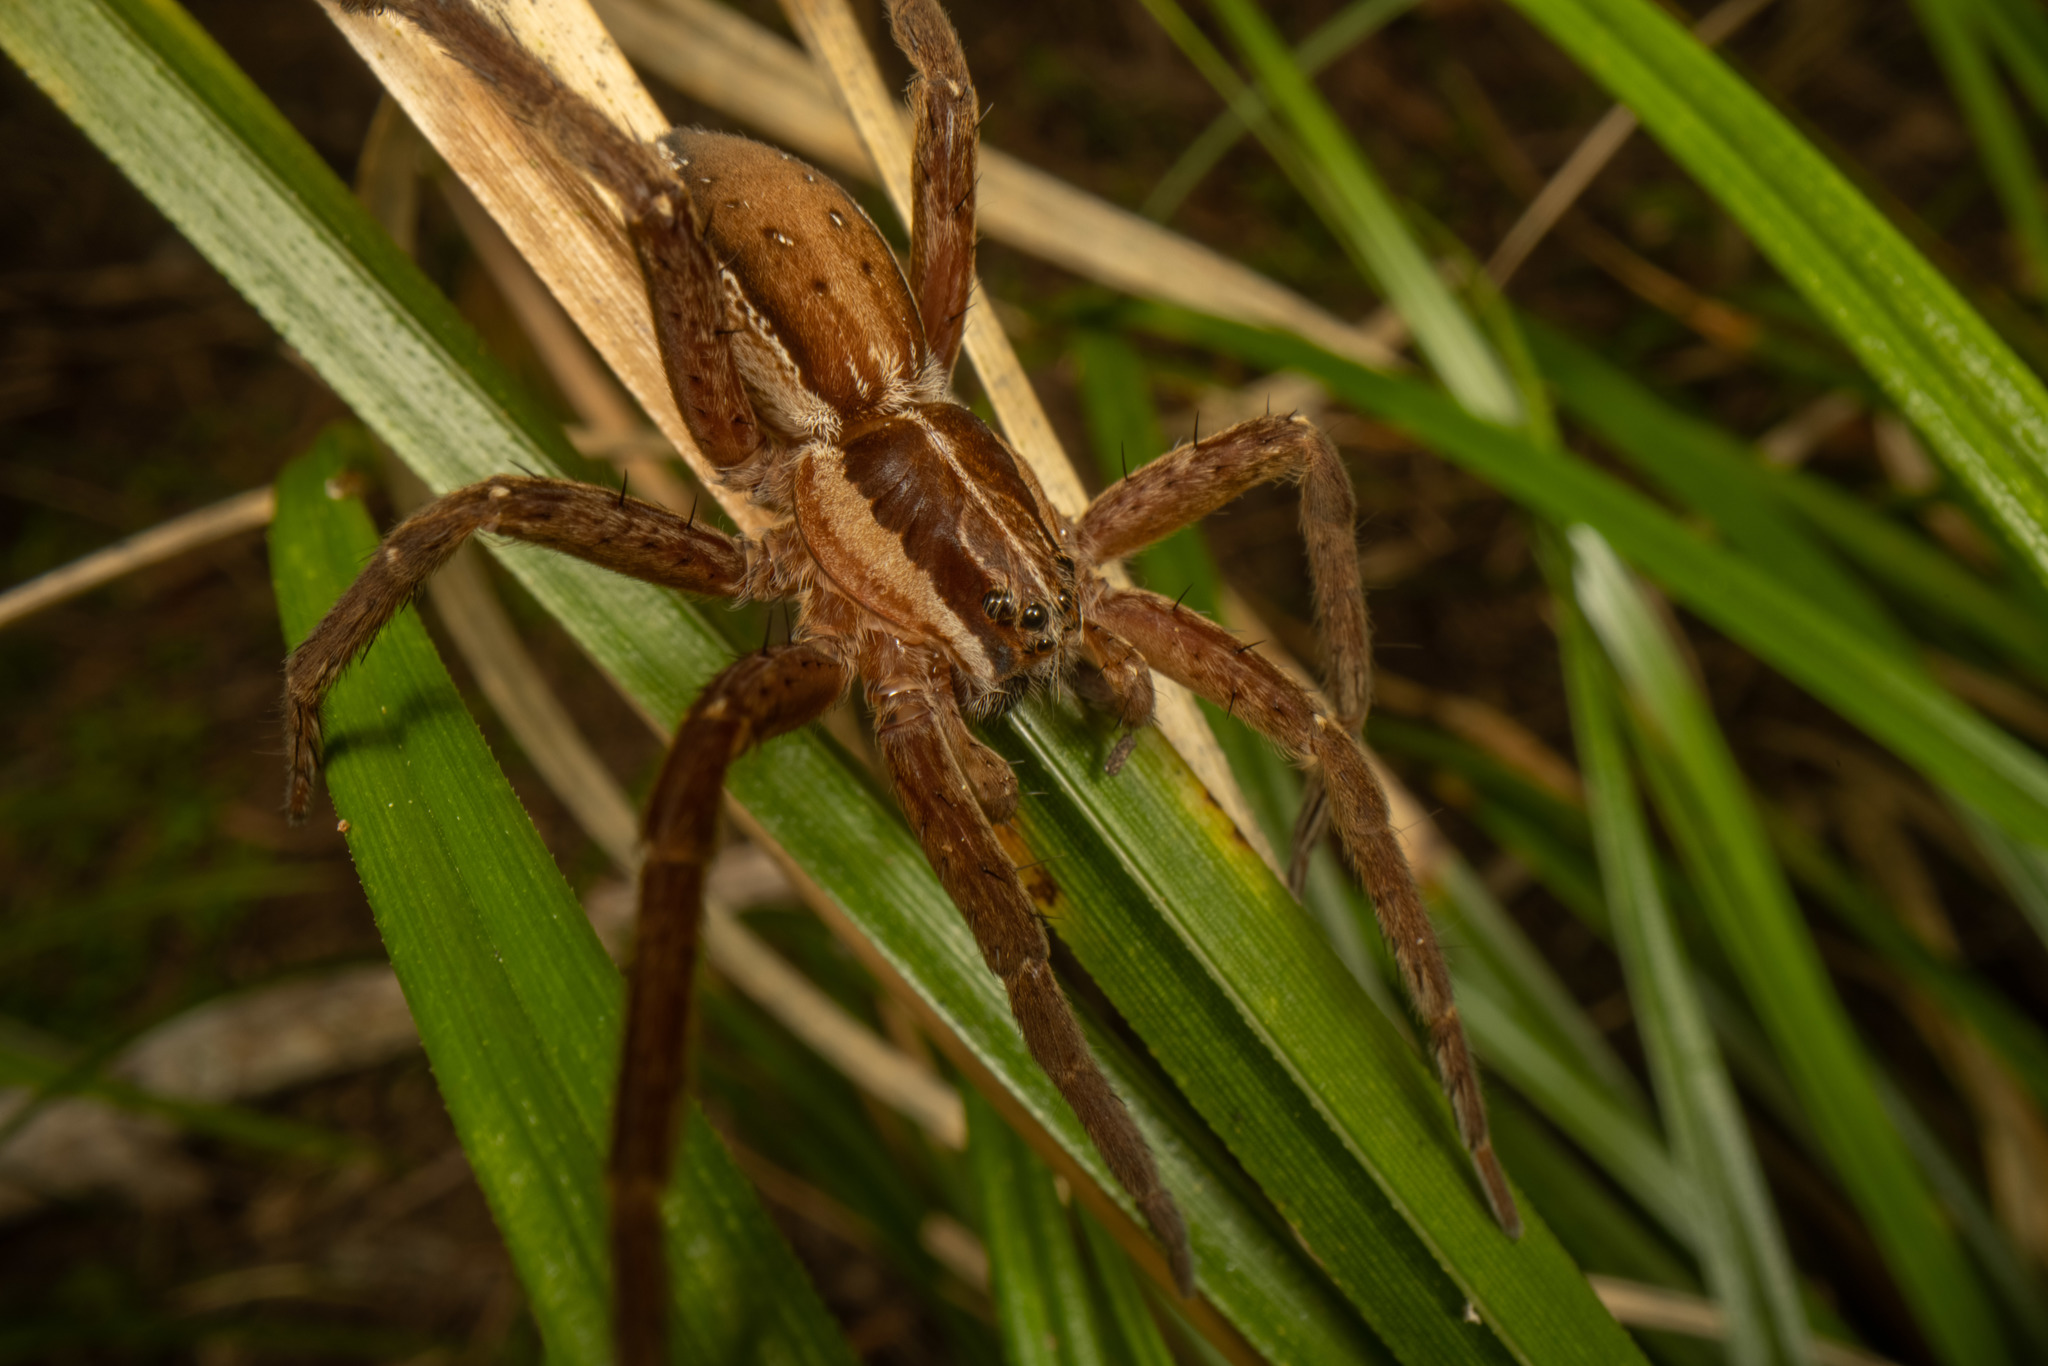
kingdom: Animalia
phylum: Arthropoda
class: Arachnida
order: Araneae
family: Pisauridae
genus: Dolomedes
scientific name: Dolomedes minor
